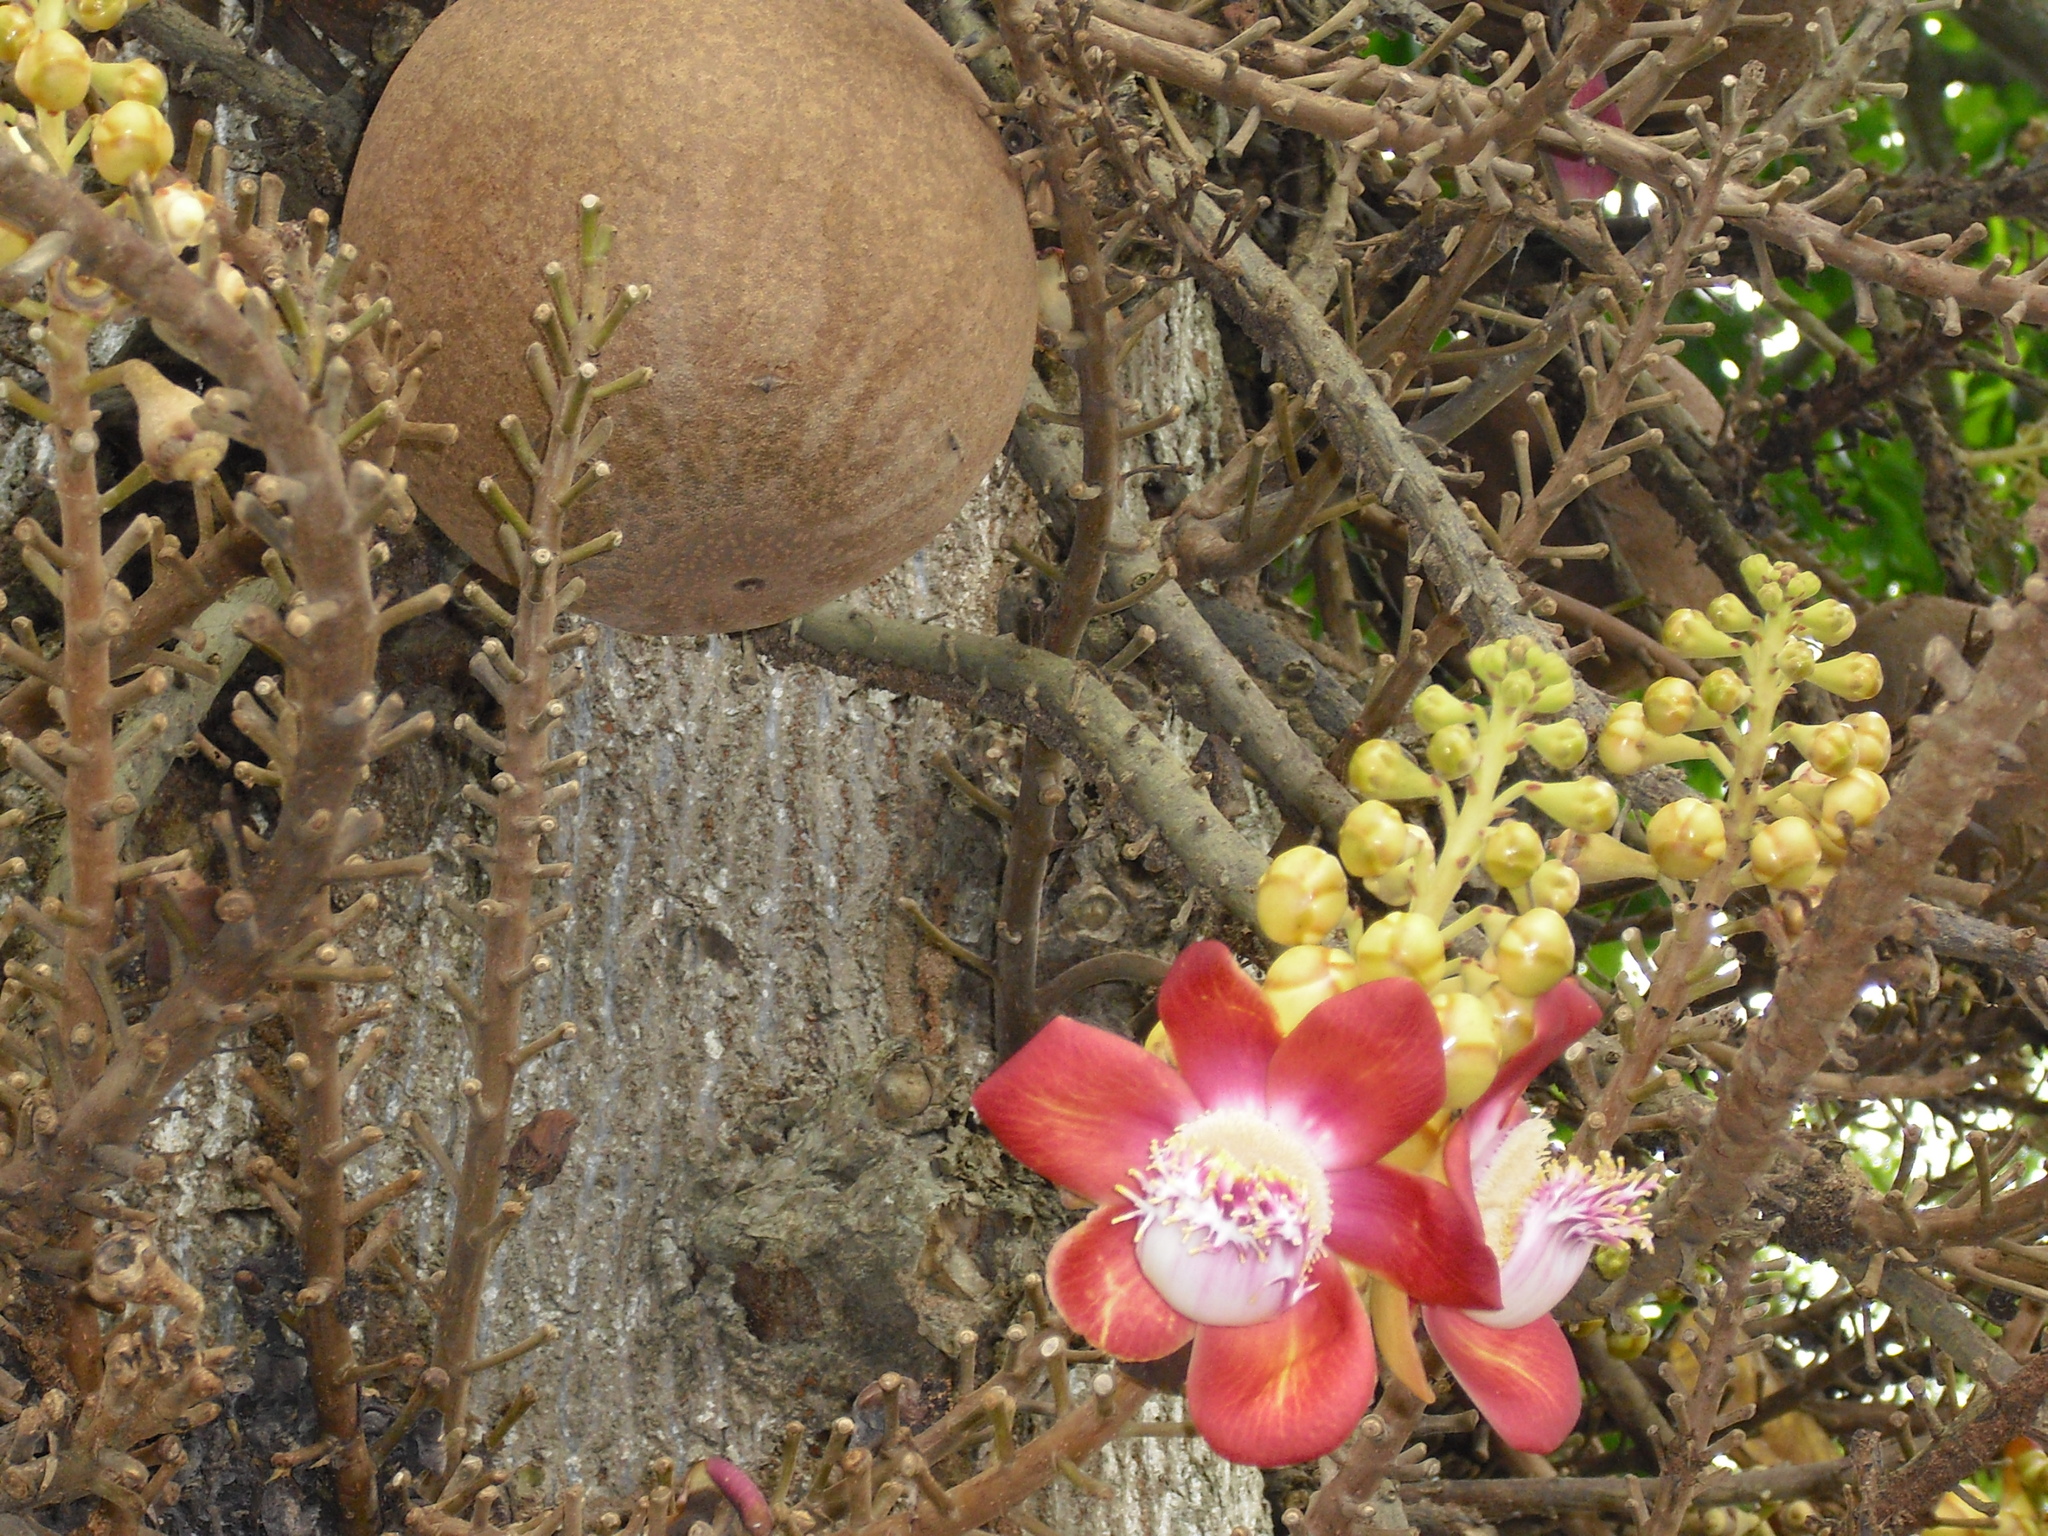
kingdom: Plantae
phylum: Tracheophyta
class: Magnoliopsida
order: Ericales
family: Lecythidaceae
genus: Couroupita
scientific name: Couroupita guianensis
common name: Cannonball tree
